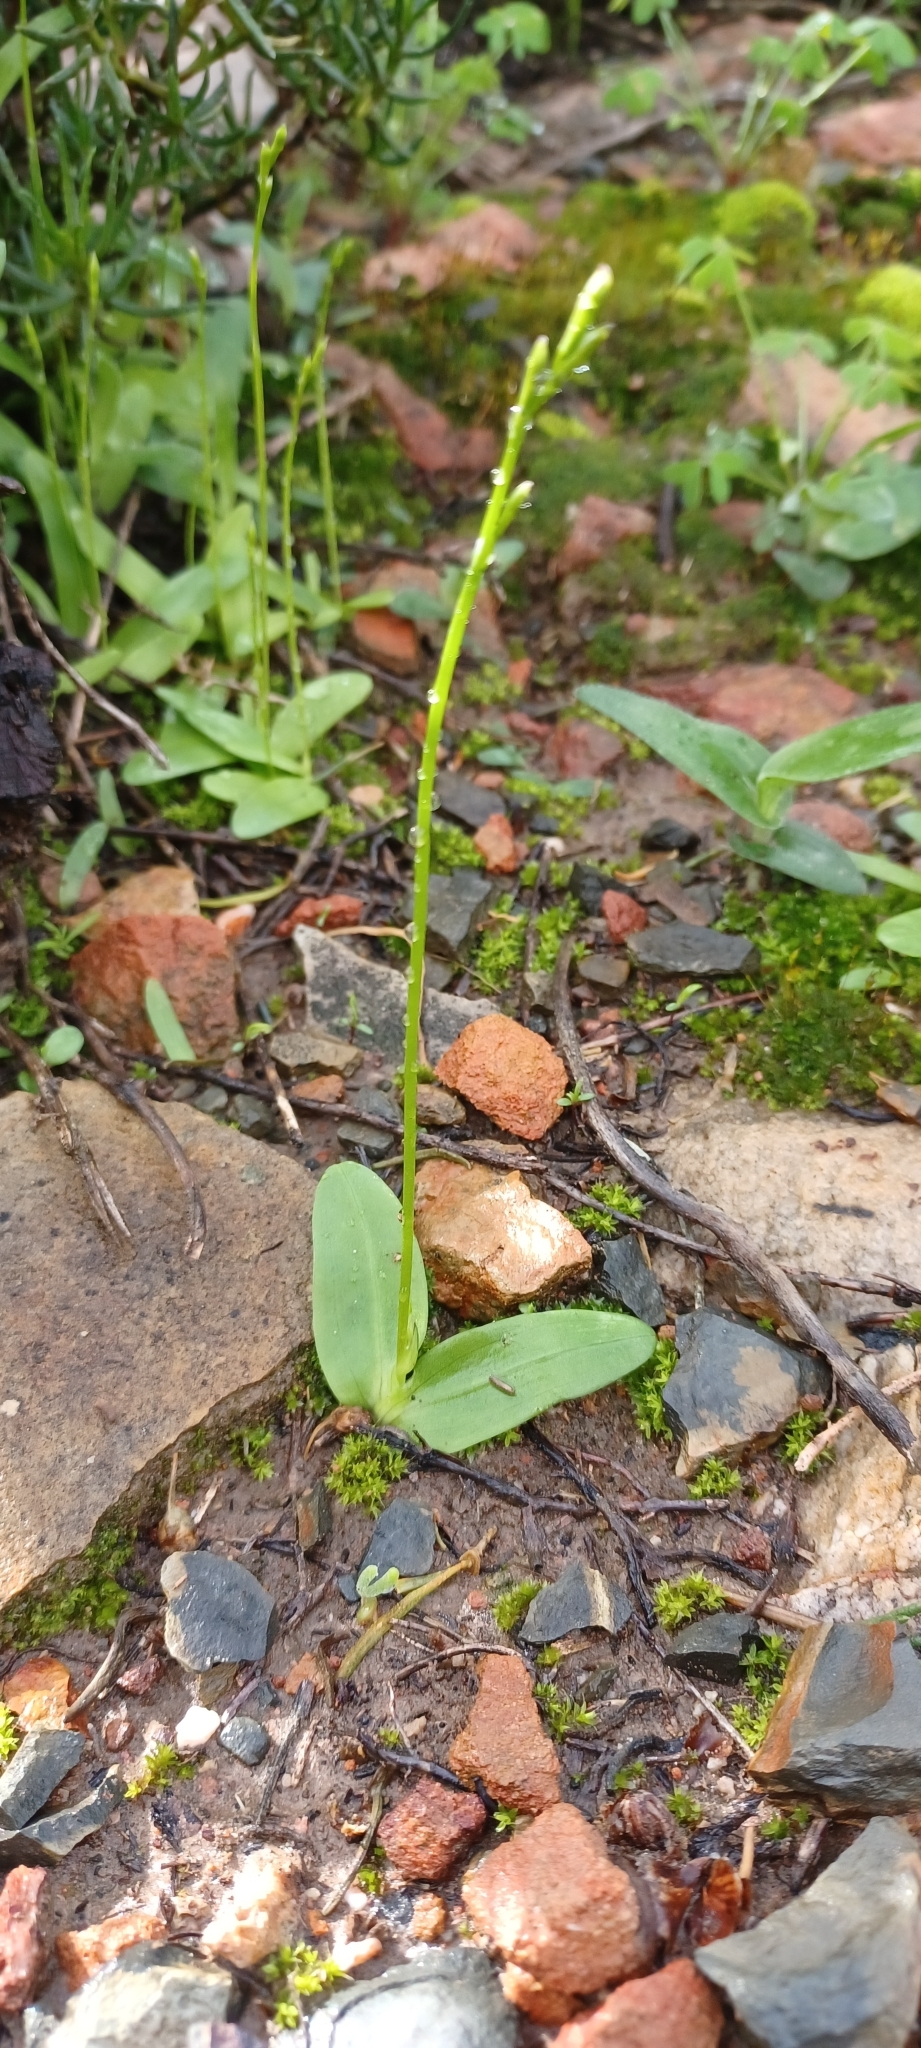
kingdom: Plantae
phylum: Tracheophyta
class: Liliopsida
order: Asparagales
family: Iridaceae
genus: Xenoscapa
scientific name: Xenoscapa fistulosa
